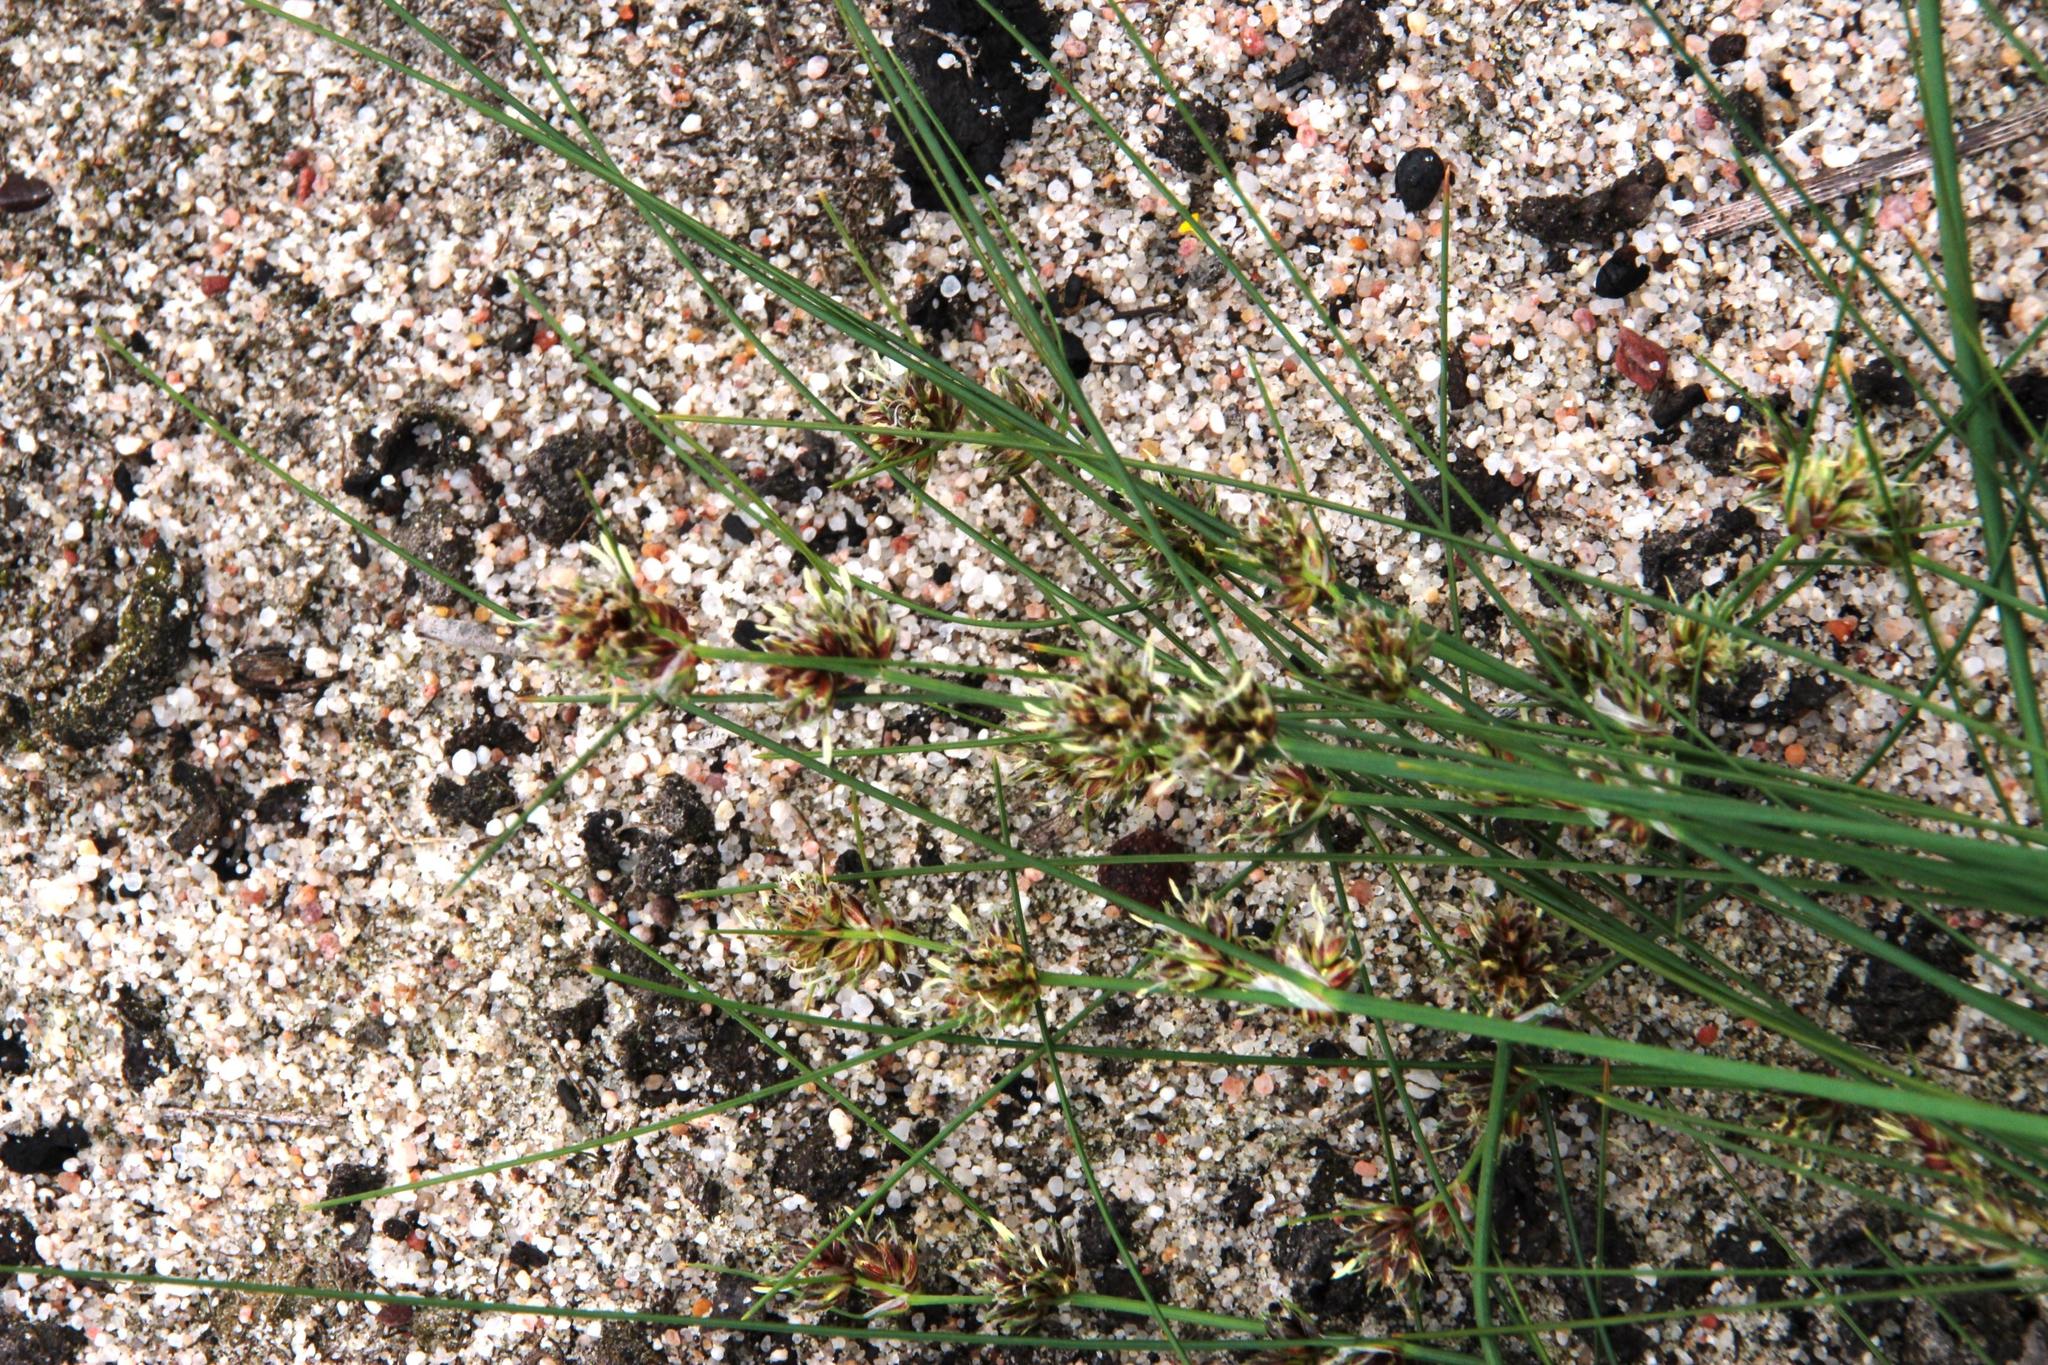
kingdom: Plantae
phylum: Tracheophyta
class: Liliopsida
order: Poales
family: Cyperaceae
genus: Ficinia
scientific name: Ficinia bulbosa
